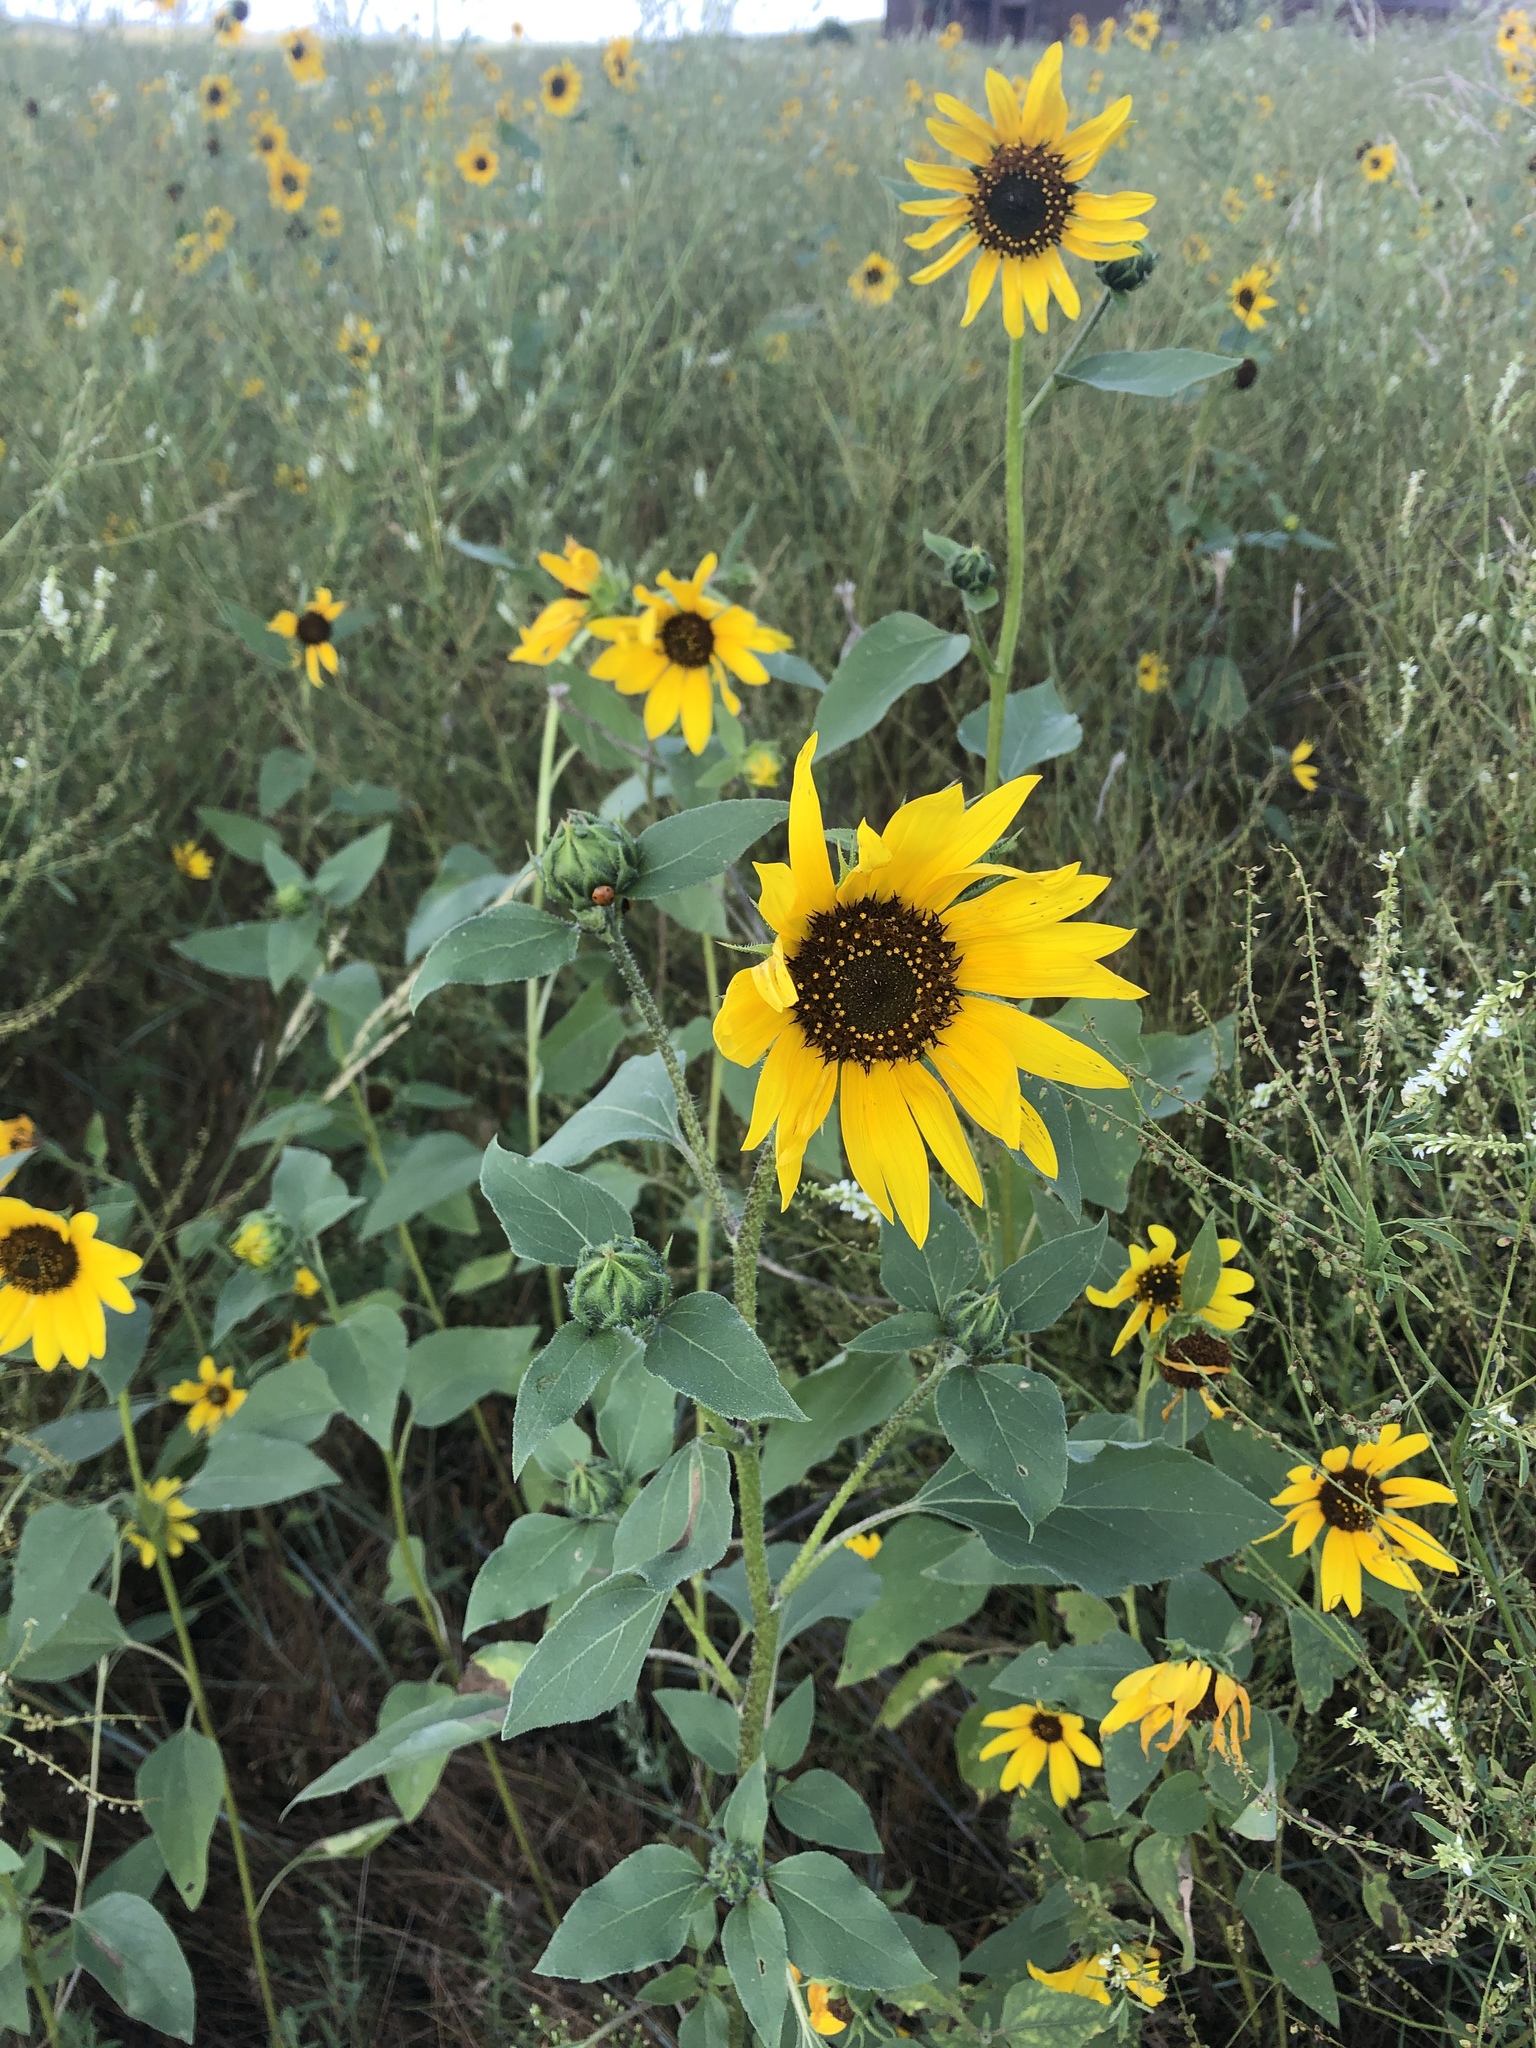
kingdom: Plantae
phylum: Tracheophyta
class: Magnoliopsida
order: Asterales
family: Asteraceae
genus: Helianthus
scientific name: Helianthus annuus
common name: Sunflower
